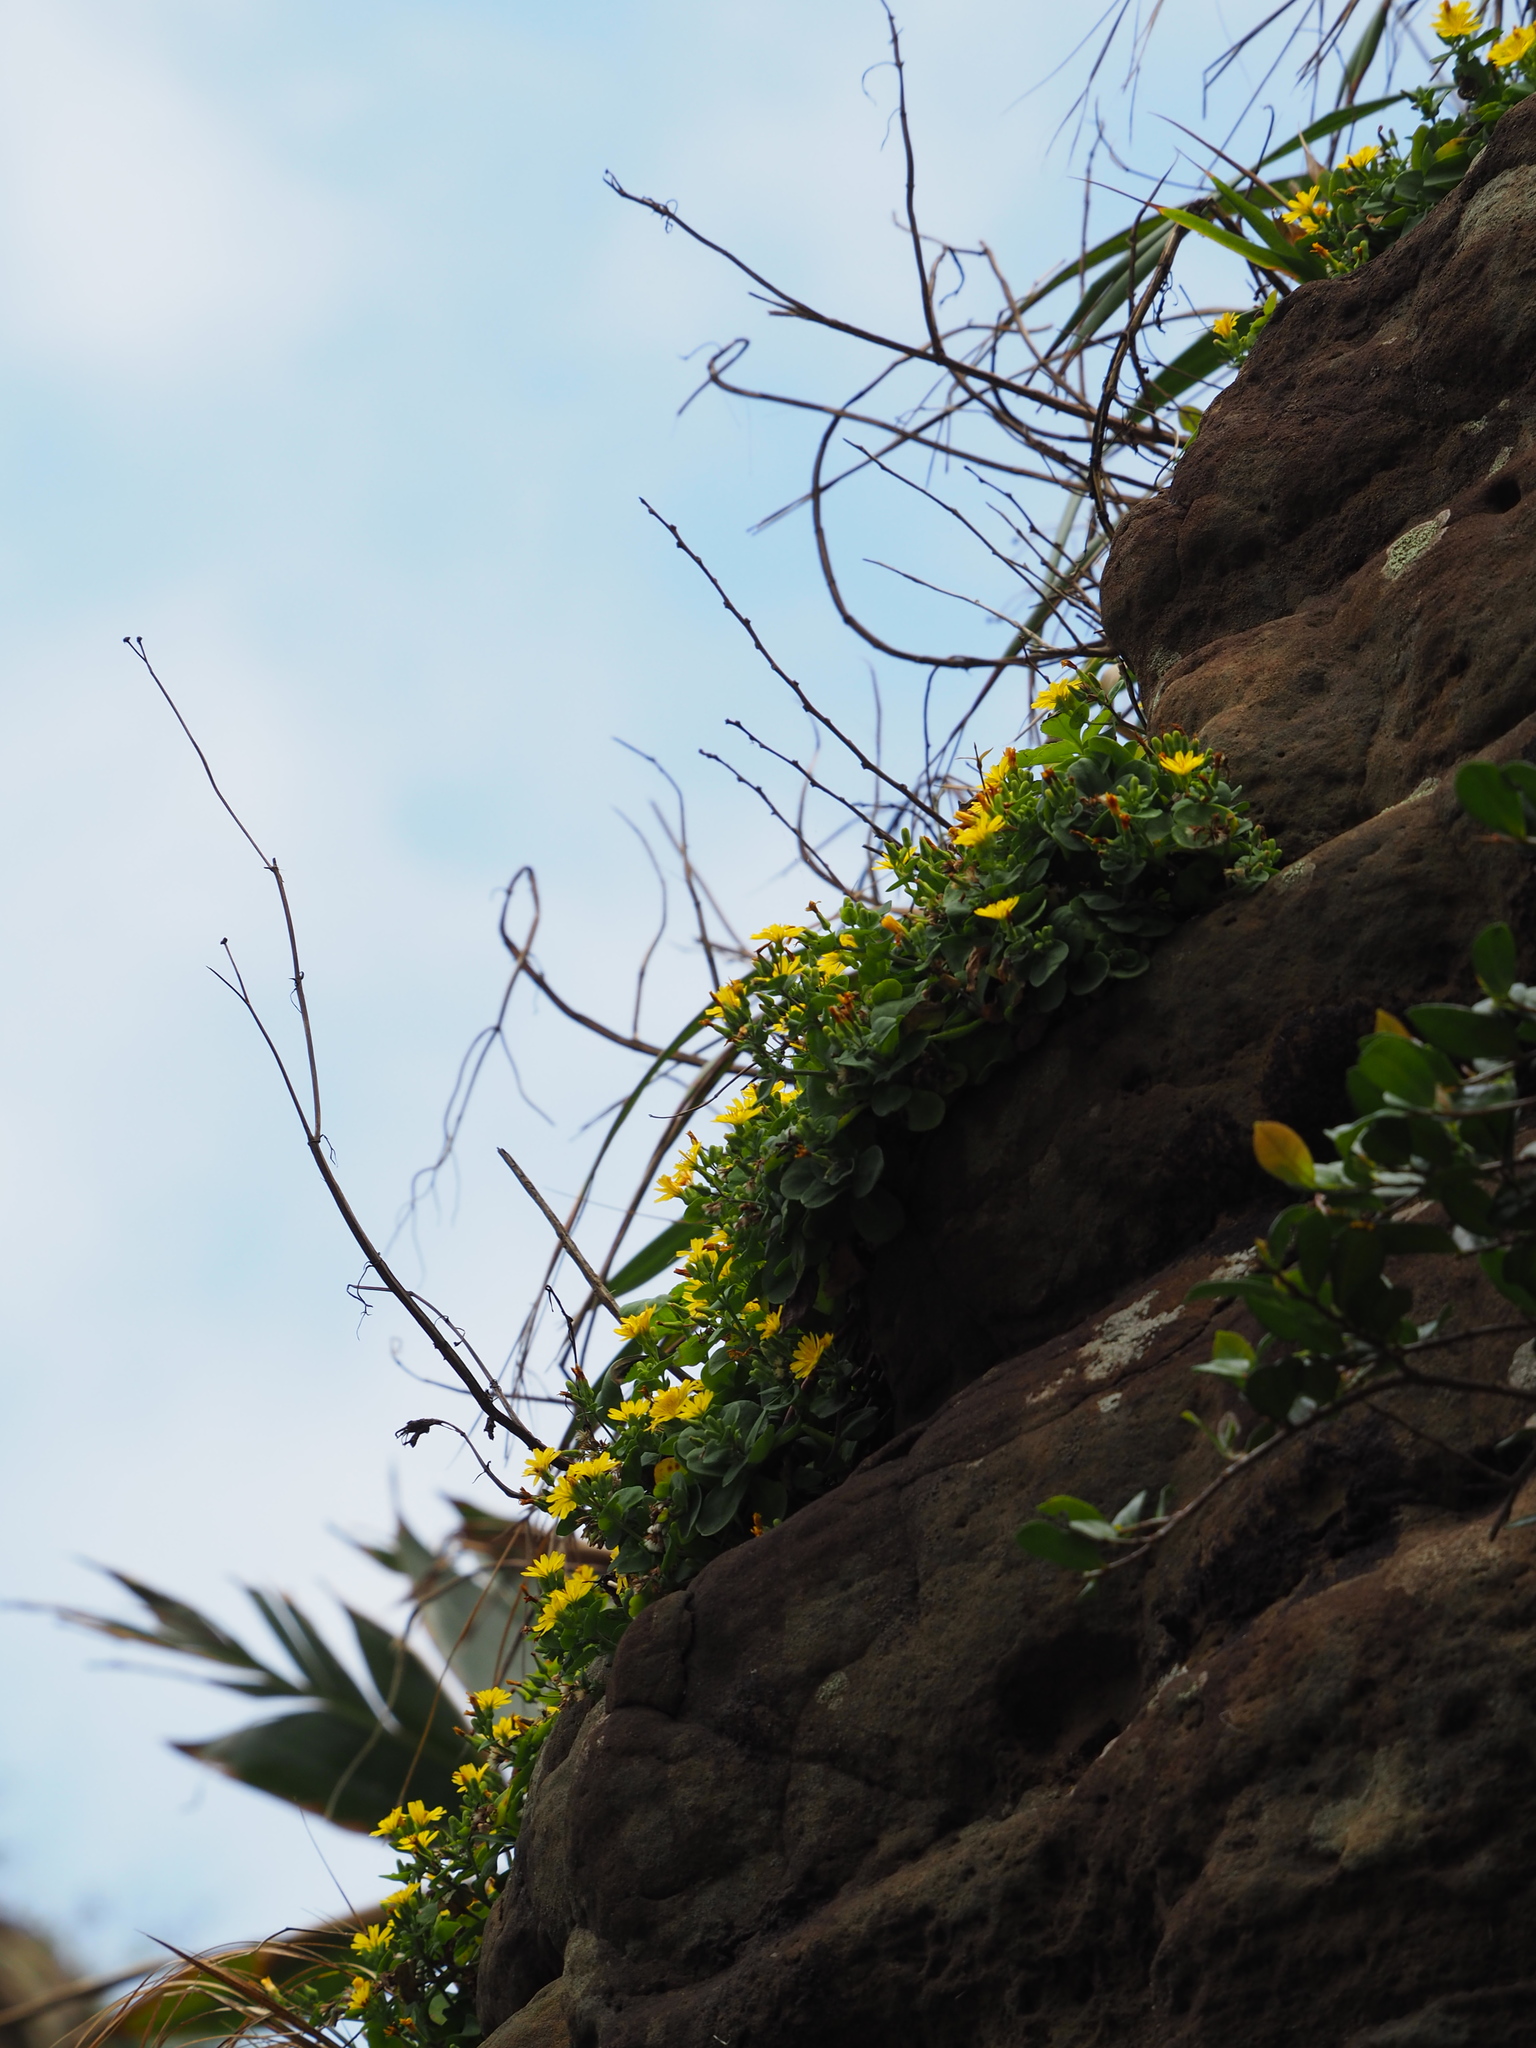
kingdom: Plantae
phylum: Tracheophyta
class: Magnoliopsida
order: Asterales
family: Asteraceae
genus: Crepidiastrum
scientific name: Crepidiastrum taiwanianum
